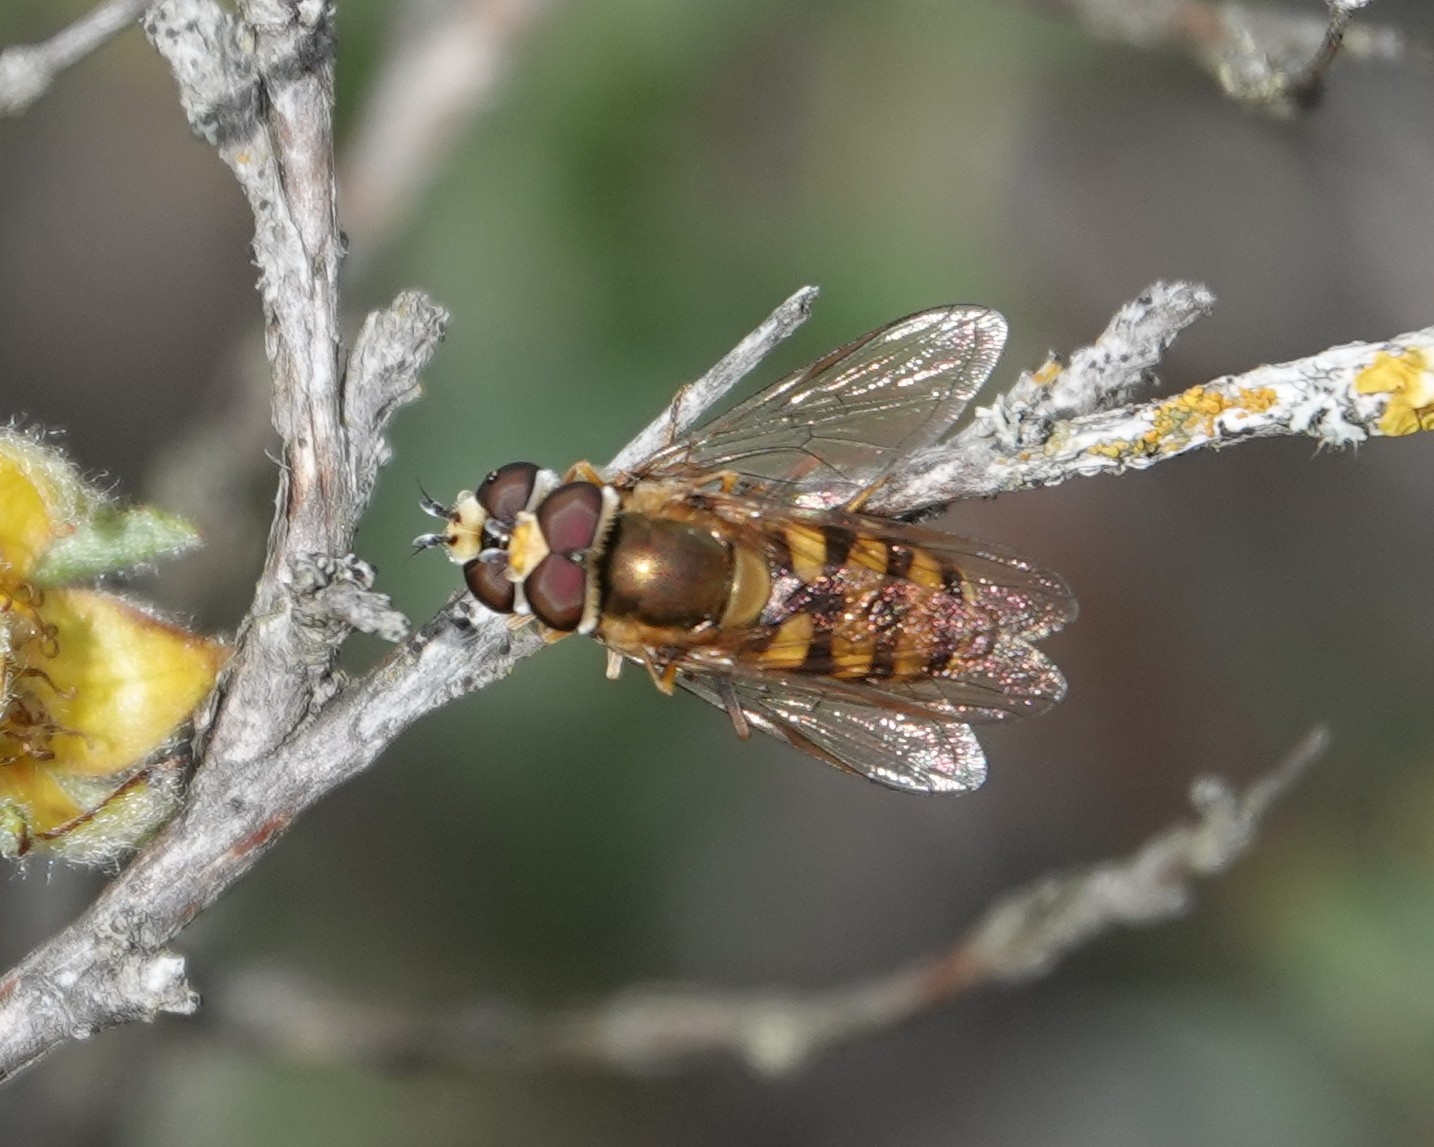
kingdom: Animalia
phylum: Arthropoda
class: Insecta
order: Diptera
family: Syrphidae
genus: Eupeodes
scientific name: Eupeodes corollae
